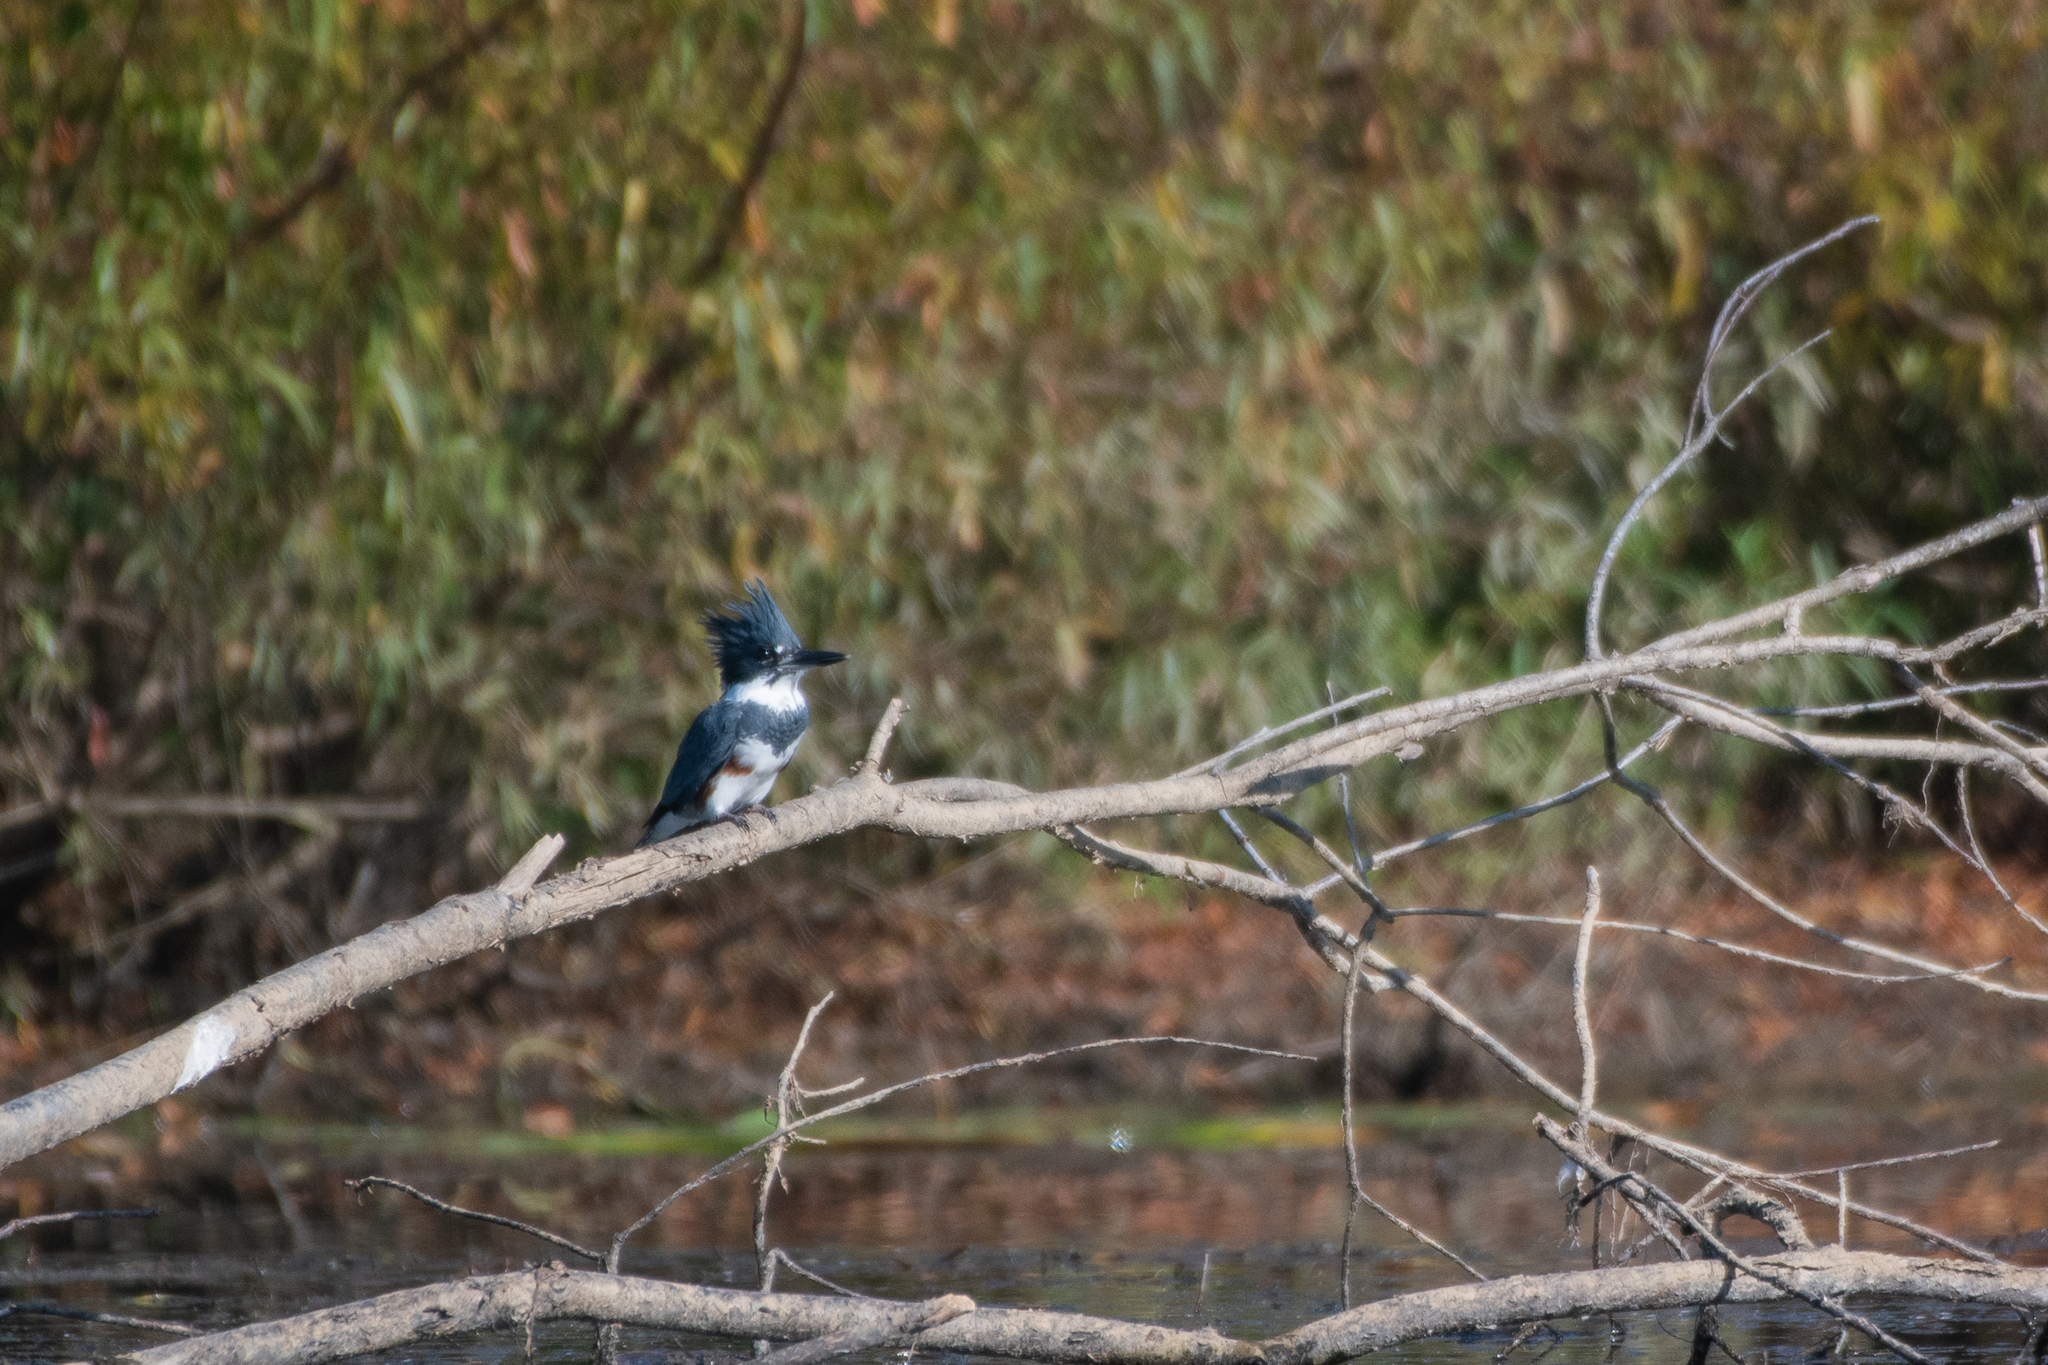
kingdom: Animalia
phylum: Chordata
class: Aves
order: Coraciiformes
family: Alcedinidae
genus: Megaceryle
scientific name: Megaceryle alcyon
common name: Belted kingfisher
